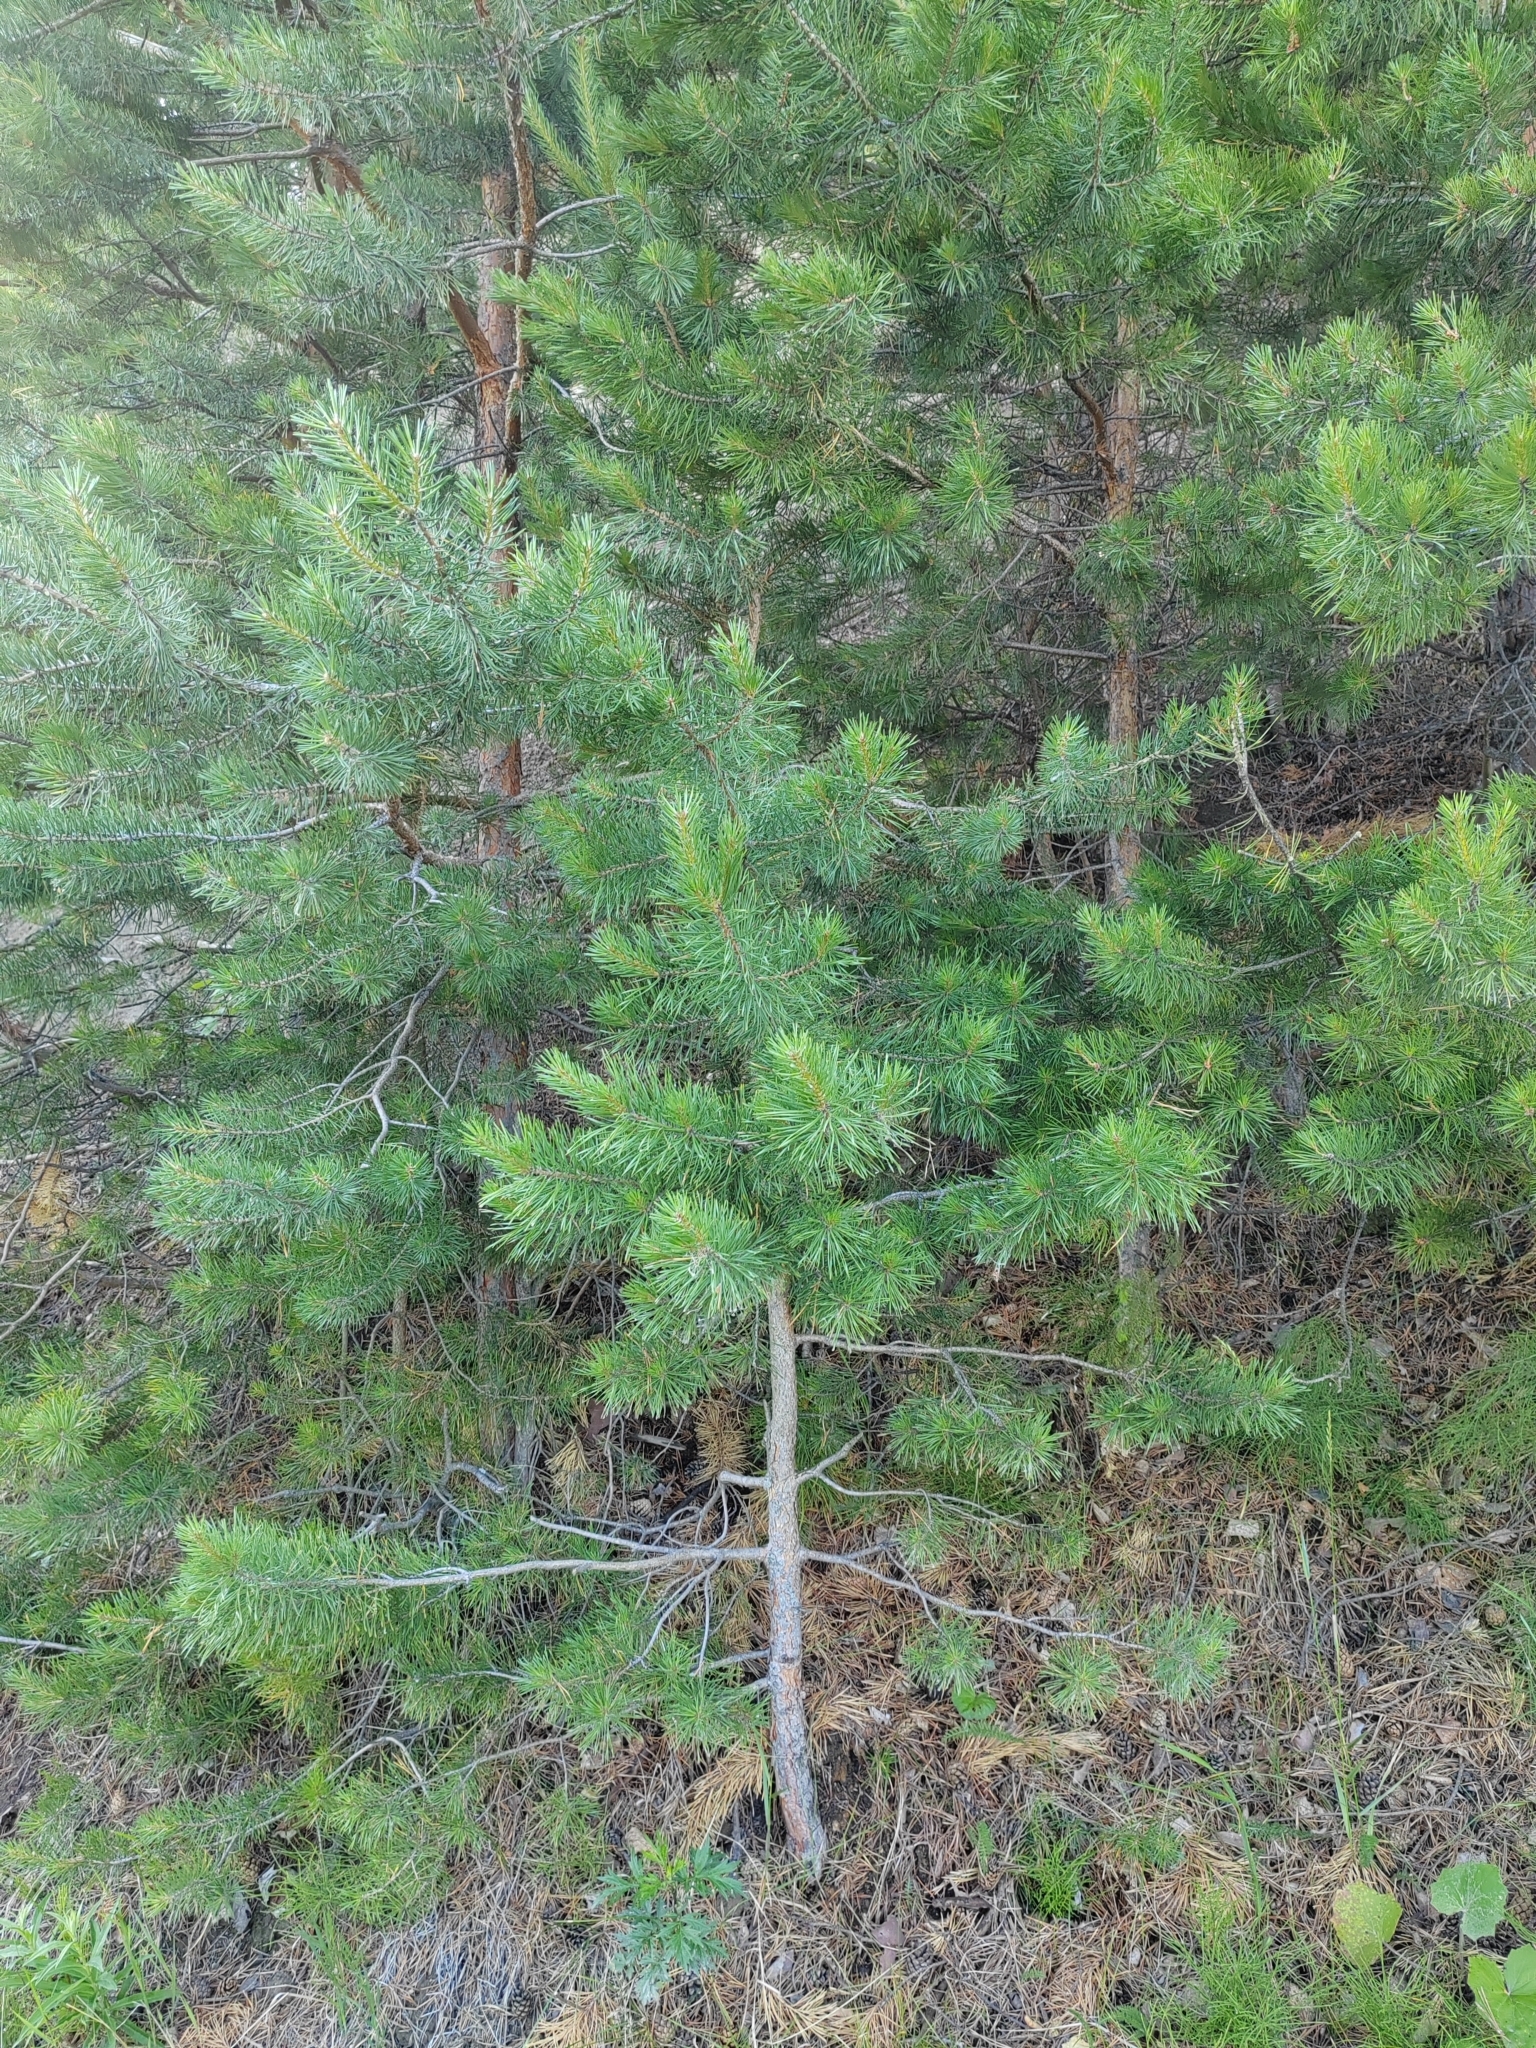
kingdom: Plantae
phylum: Tracheophyta
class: Pinopsida
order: Pinales
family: Pinaceae
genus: Pinus
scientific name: Pinus sylvestris
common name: Scots pine
